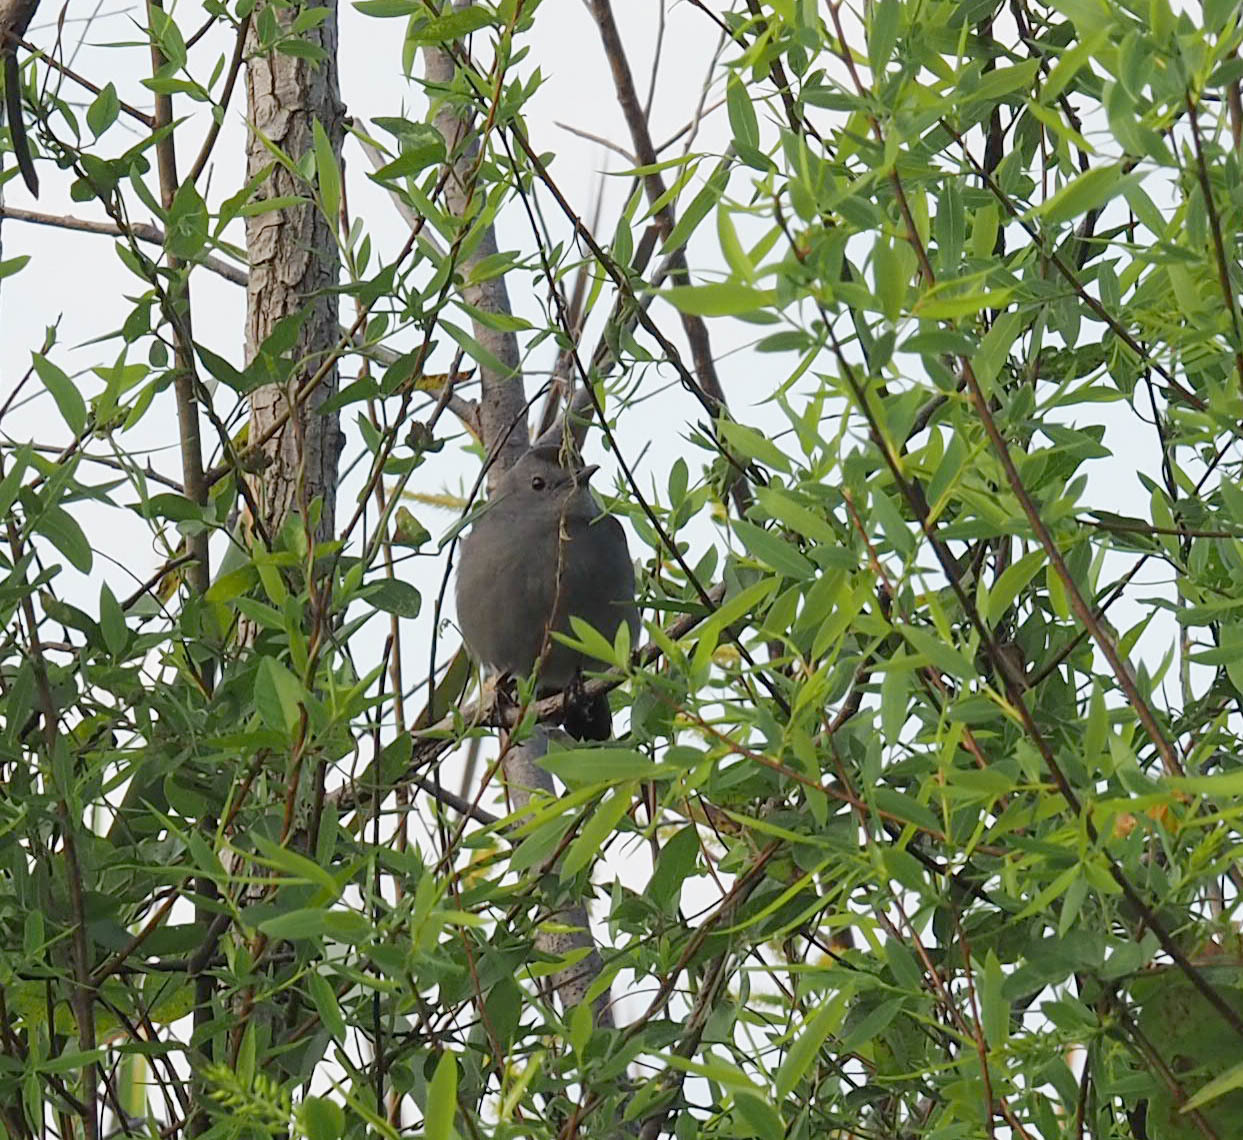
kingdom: Animalia
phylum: Chordata
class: Aves
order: Passeriformes
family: Mimidae
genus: Dumetella
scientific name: Dumetella carolinensis
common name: Gray catbird
